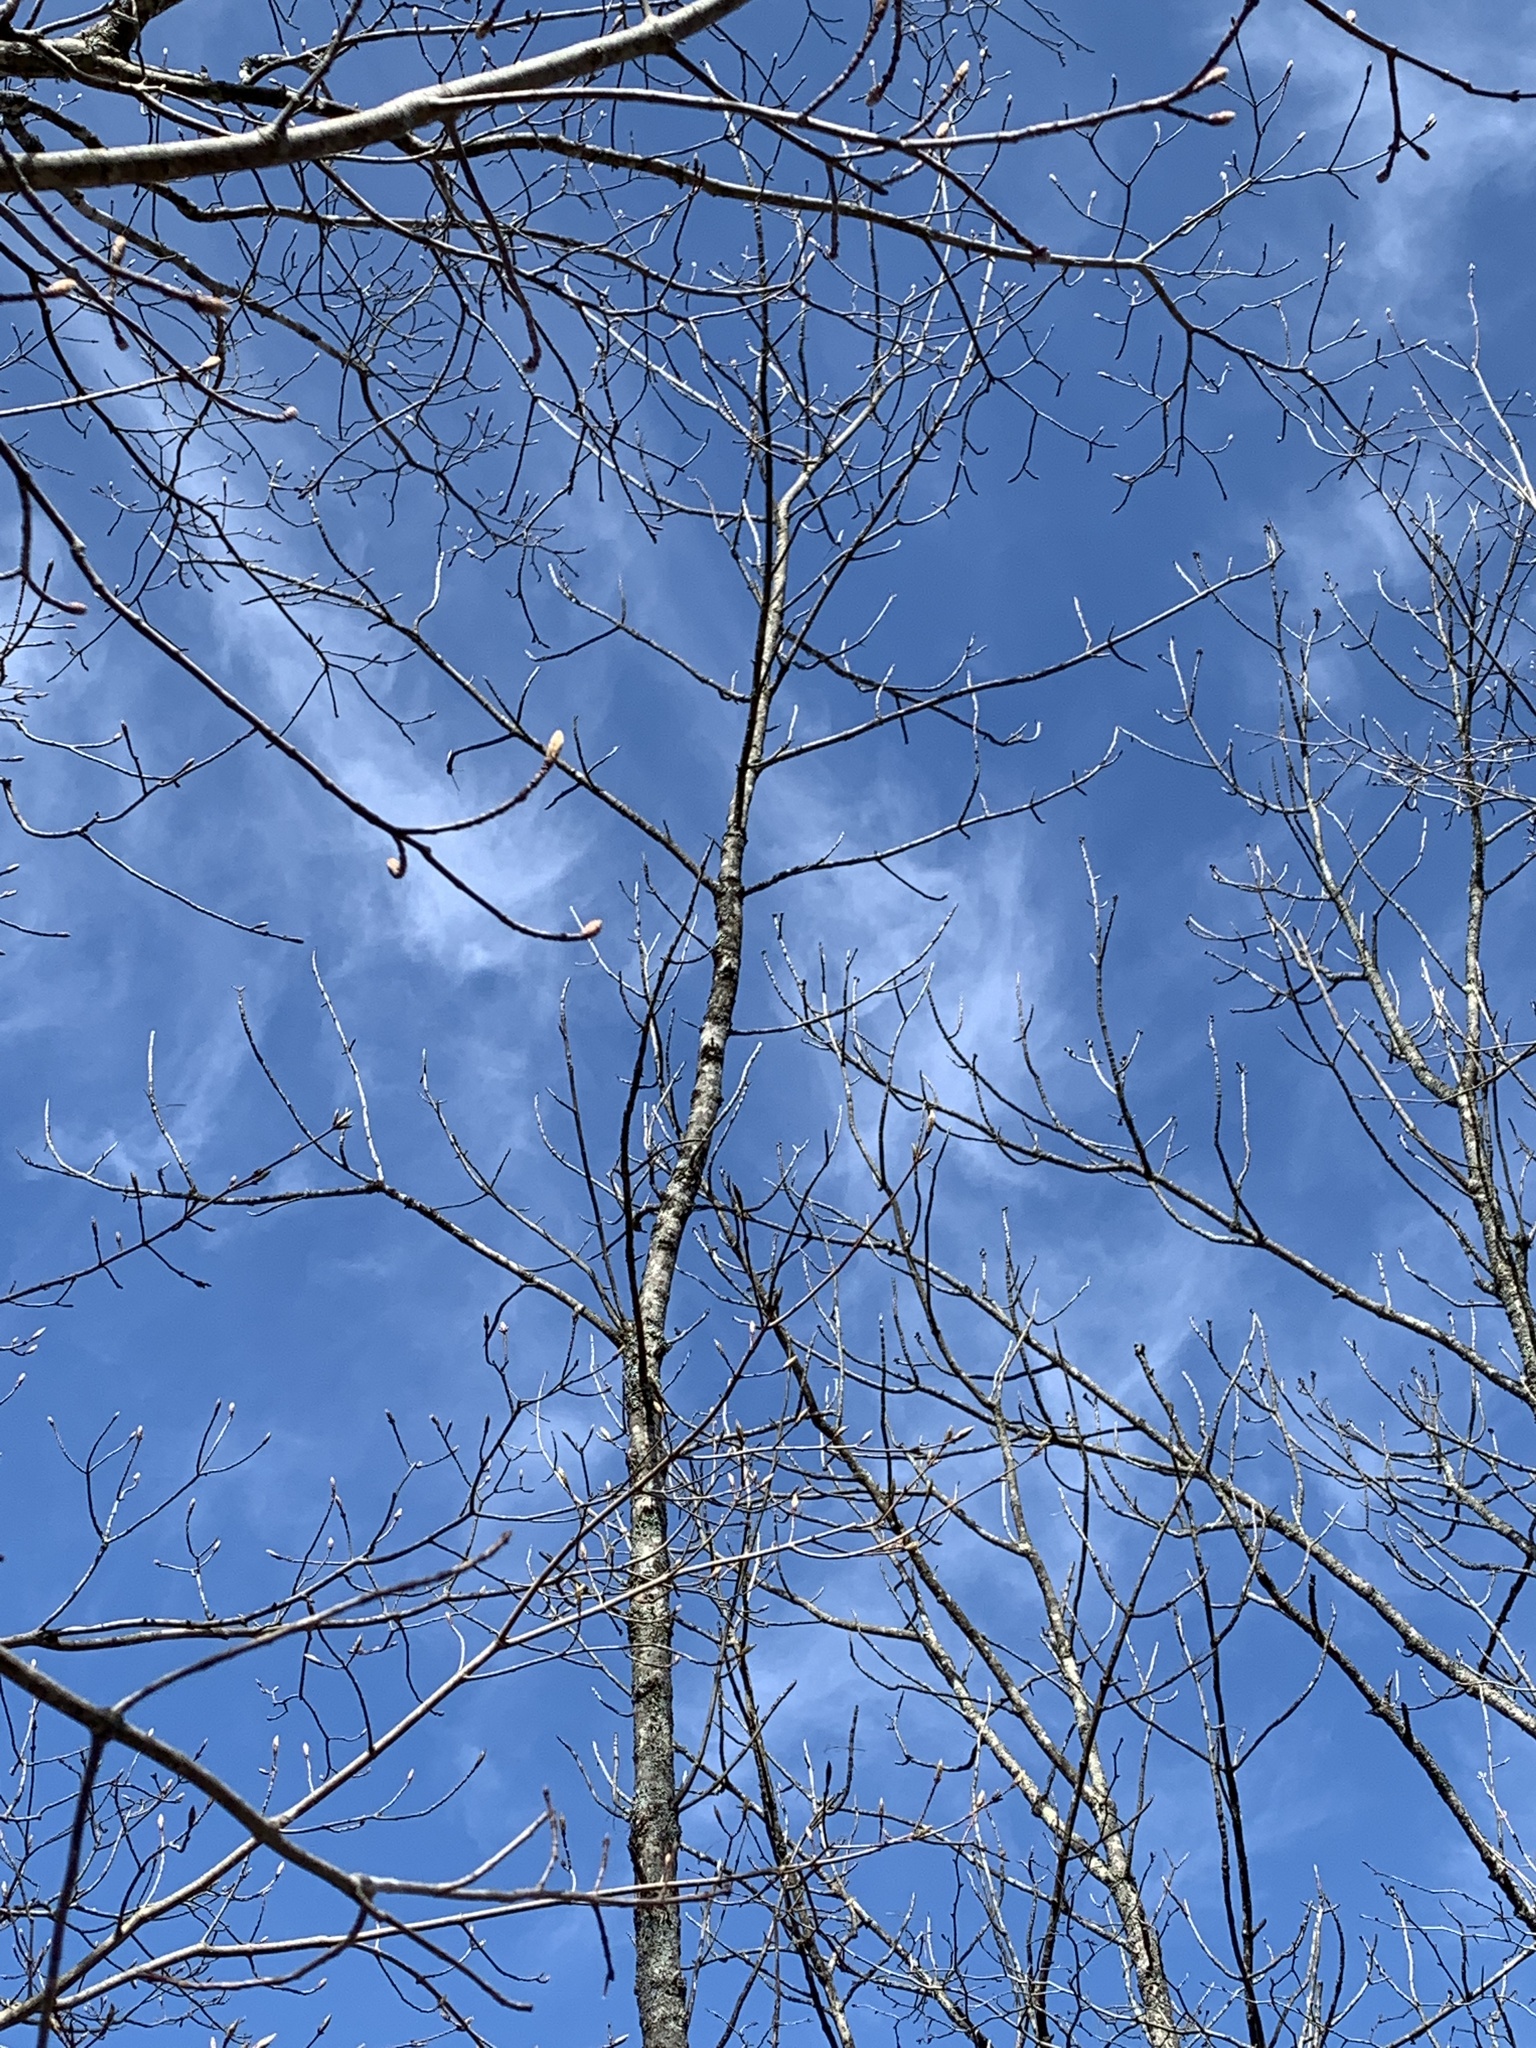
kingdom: Plantae
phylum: Tracheophyta
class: Magnoliopsida
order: Lamiales
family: Oleaceae
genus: Fraxinus
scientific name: Fraxinus nigra
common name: Black ash
